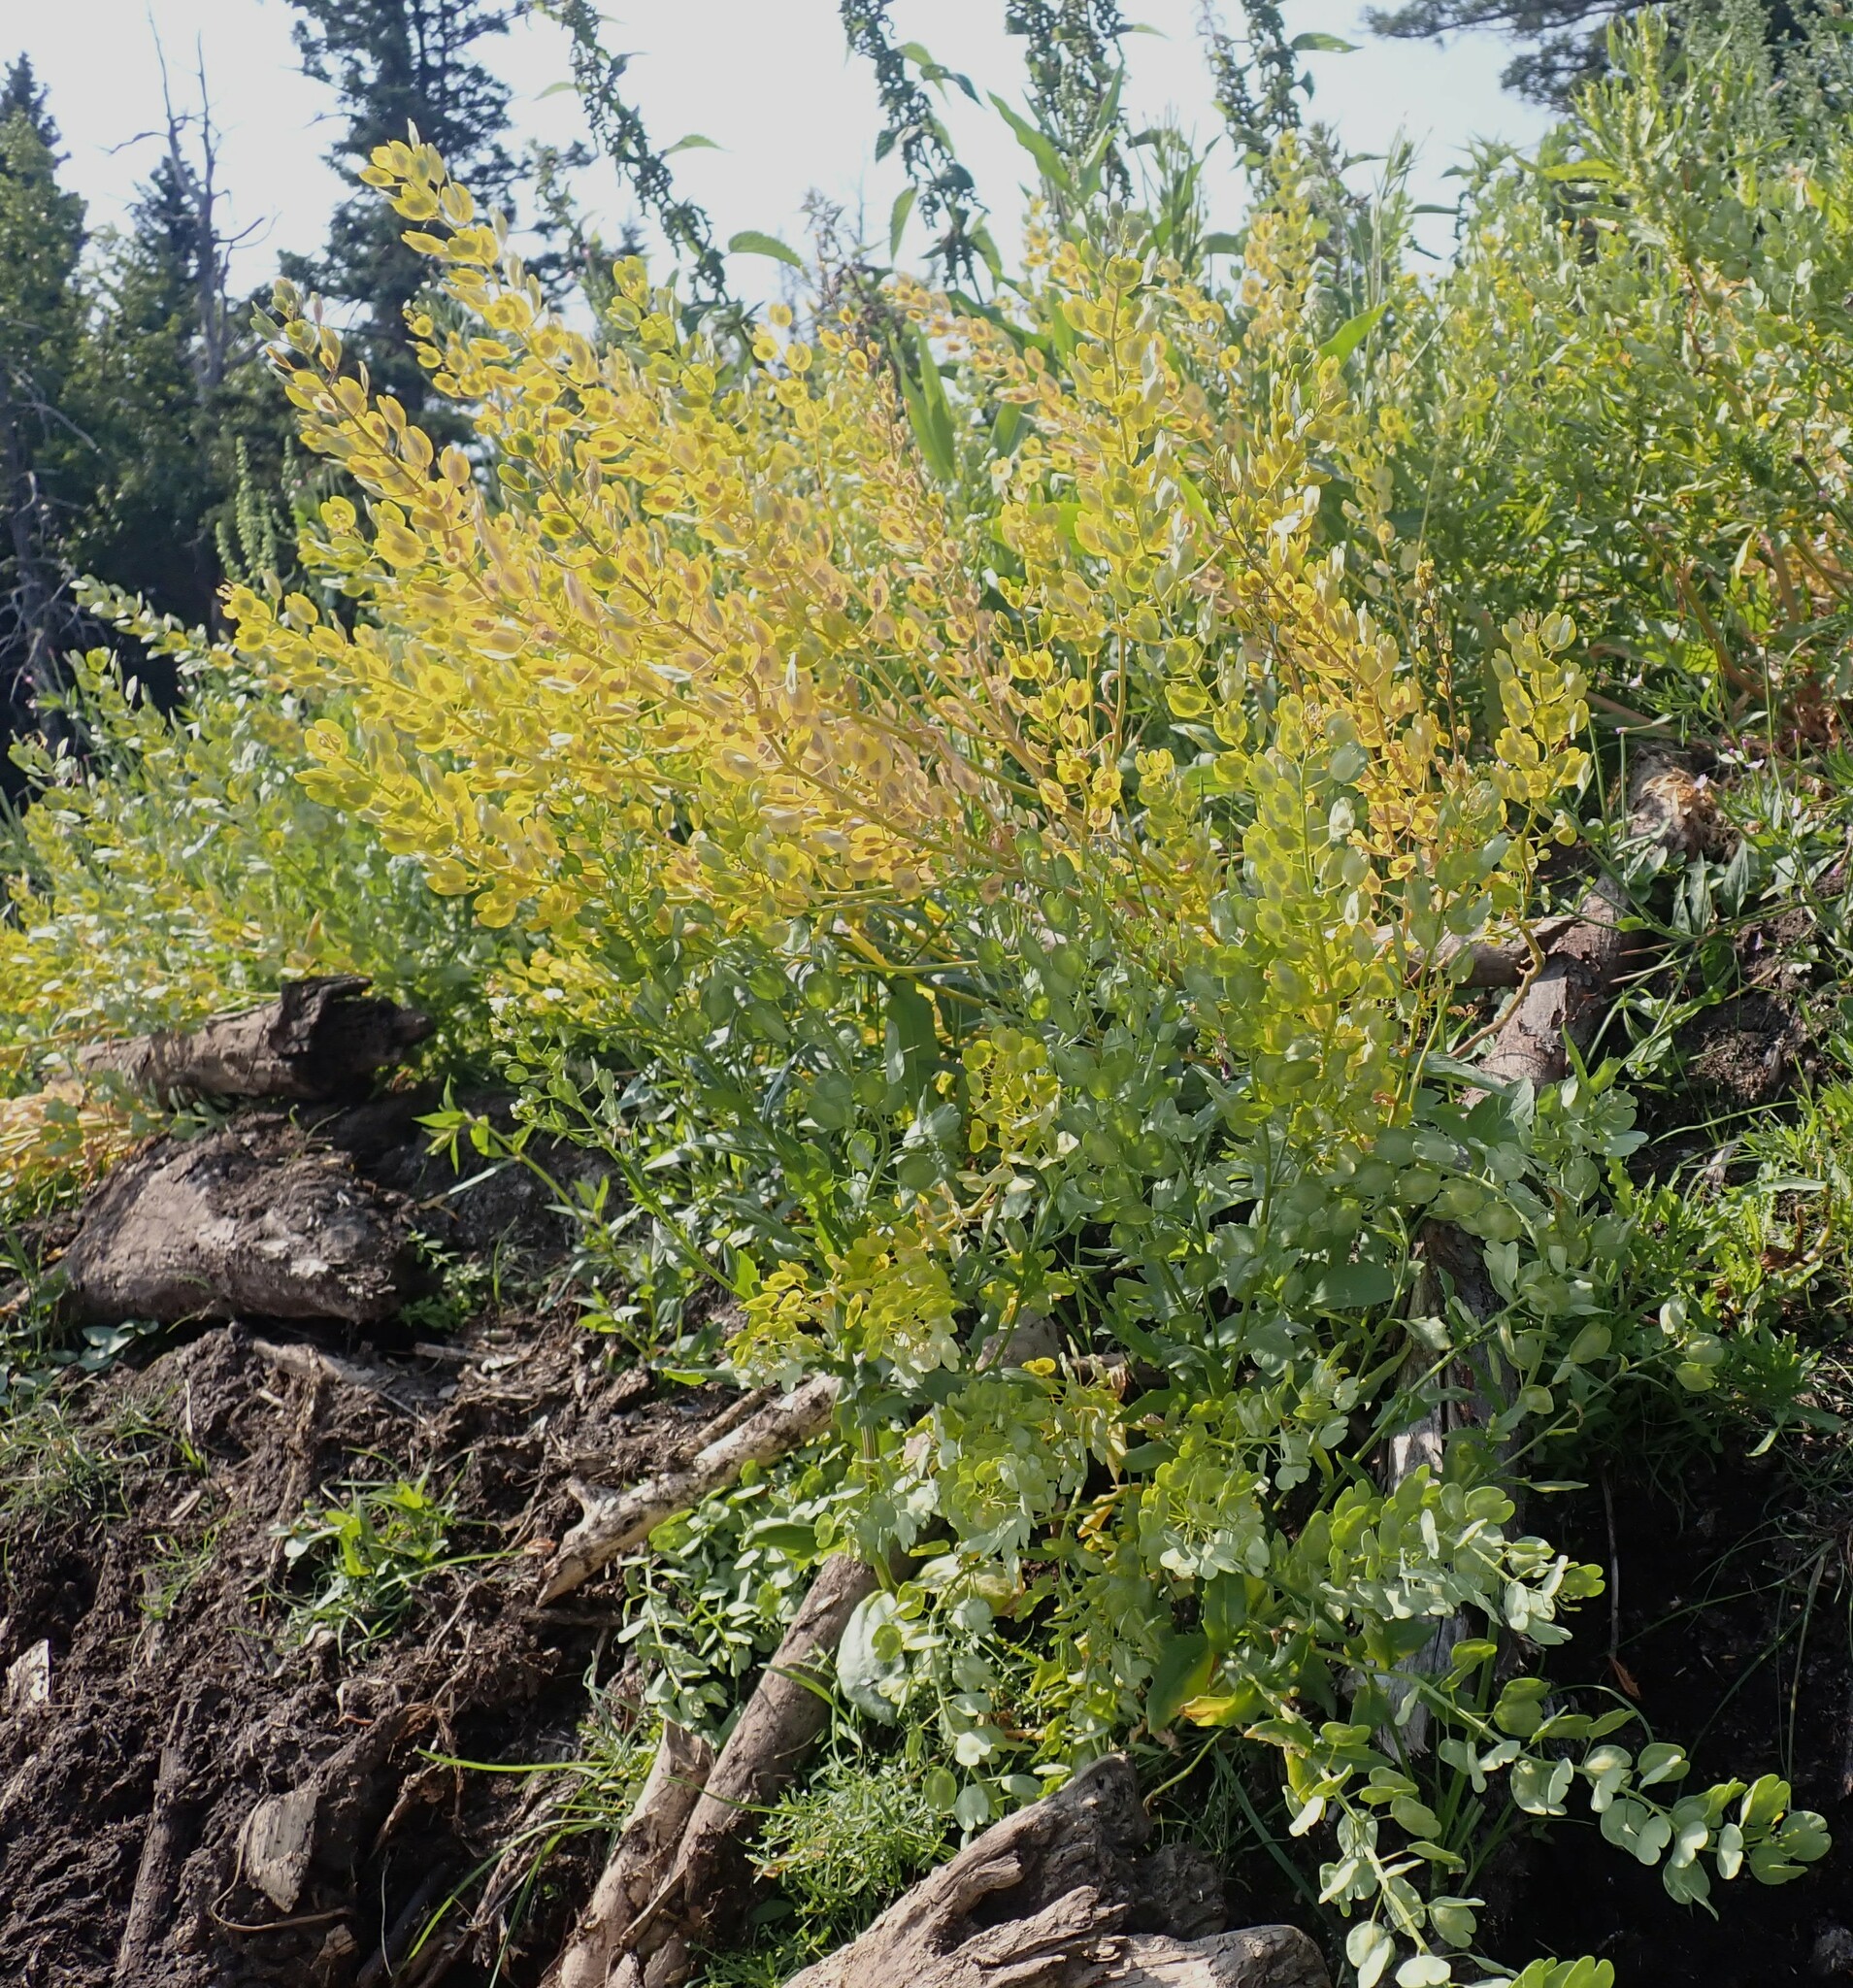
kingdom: Plantae
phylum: Tracheophyta
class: Magnoliopsida
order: Brassicales
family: Brassicaceae
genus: Thlaspi
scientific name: Thlaspi arvense
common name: Field pennycress
